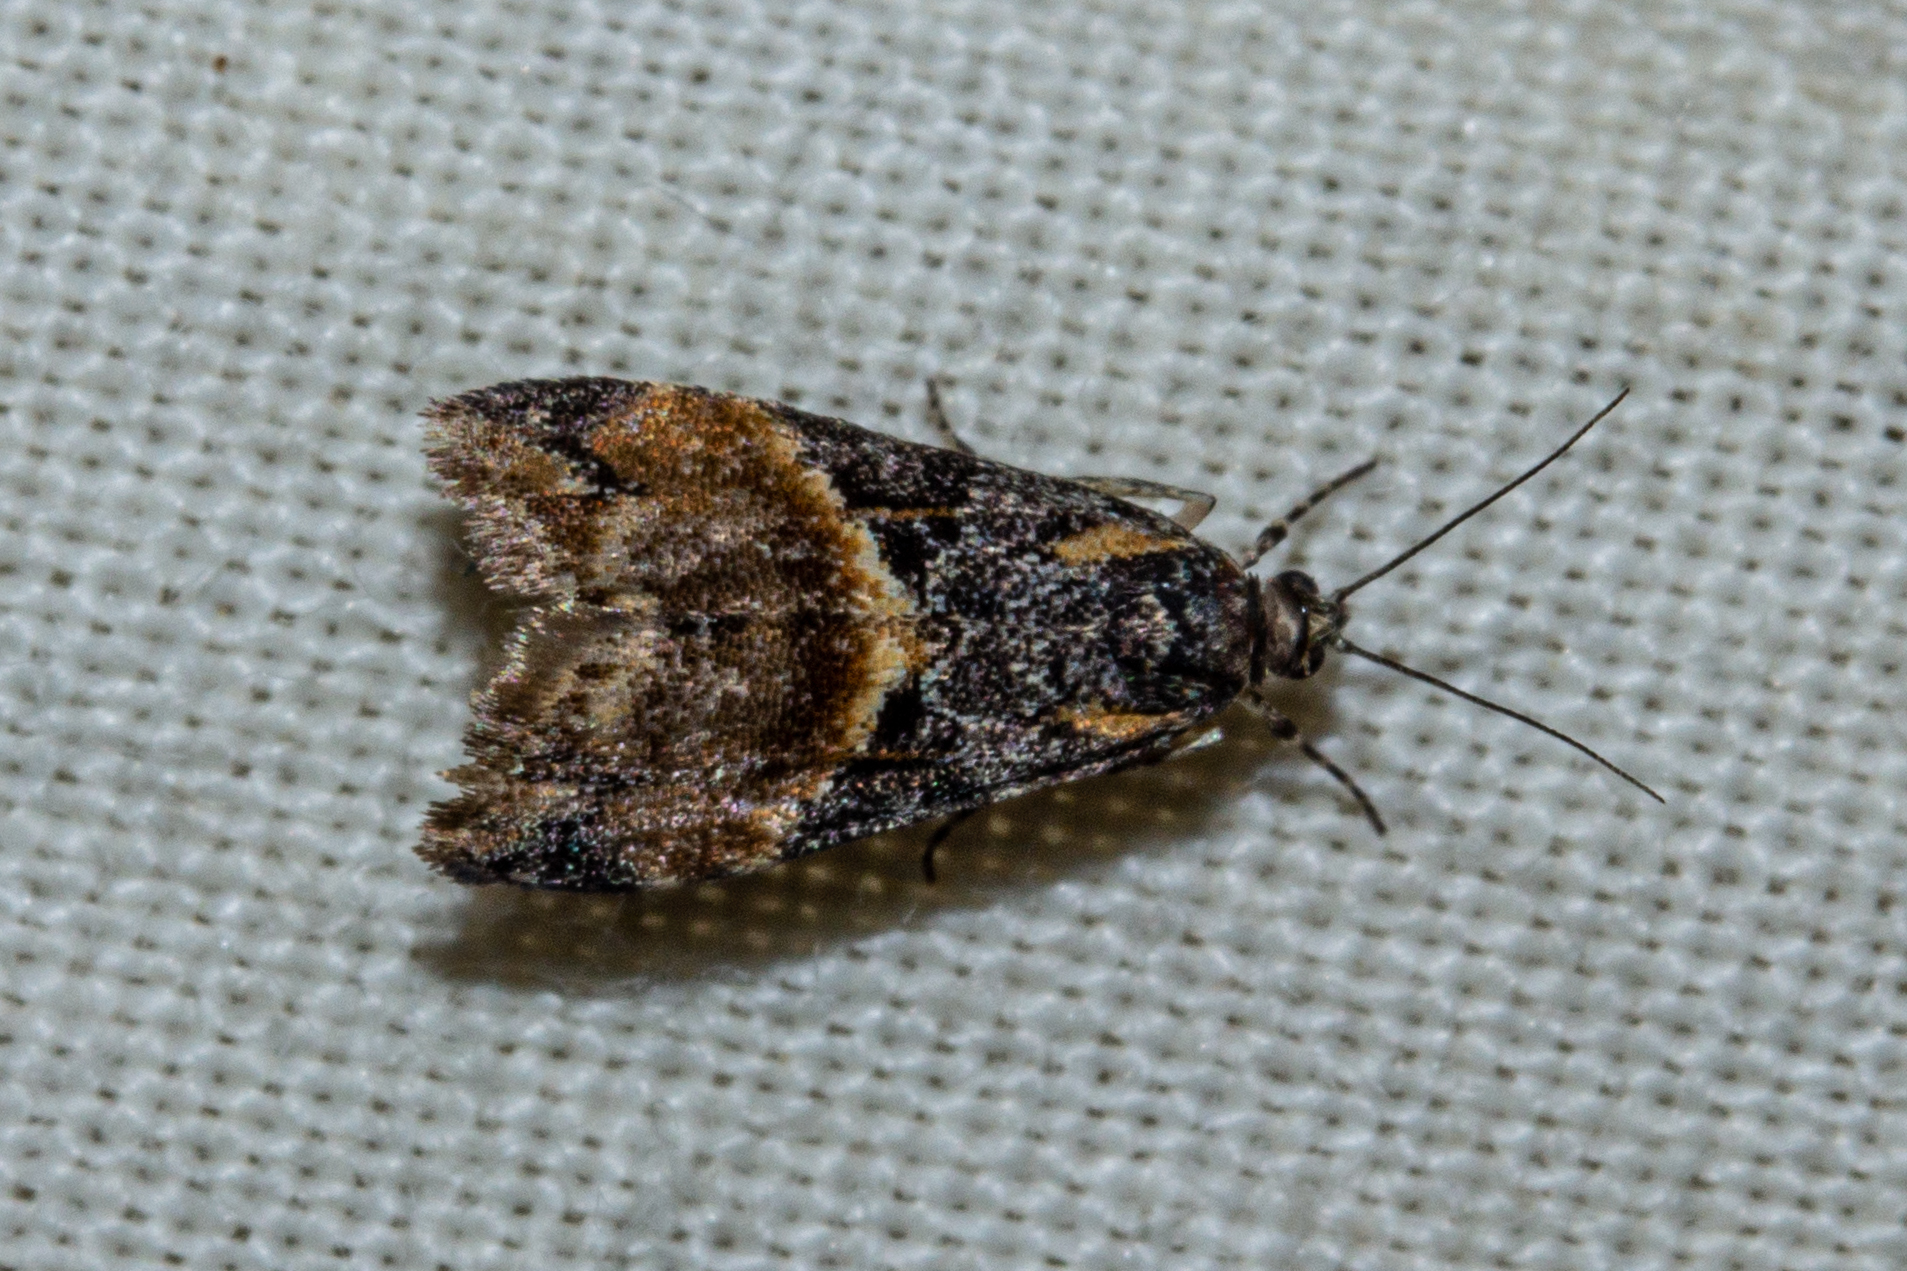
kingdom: Animalia
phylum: Arthropoda
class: Insecta
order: Lepidoptera
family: Crambidae
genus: Eudonia
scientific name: Eudonia chlamydota
